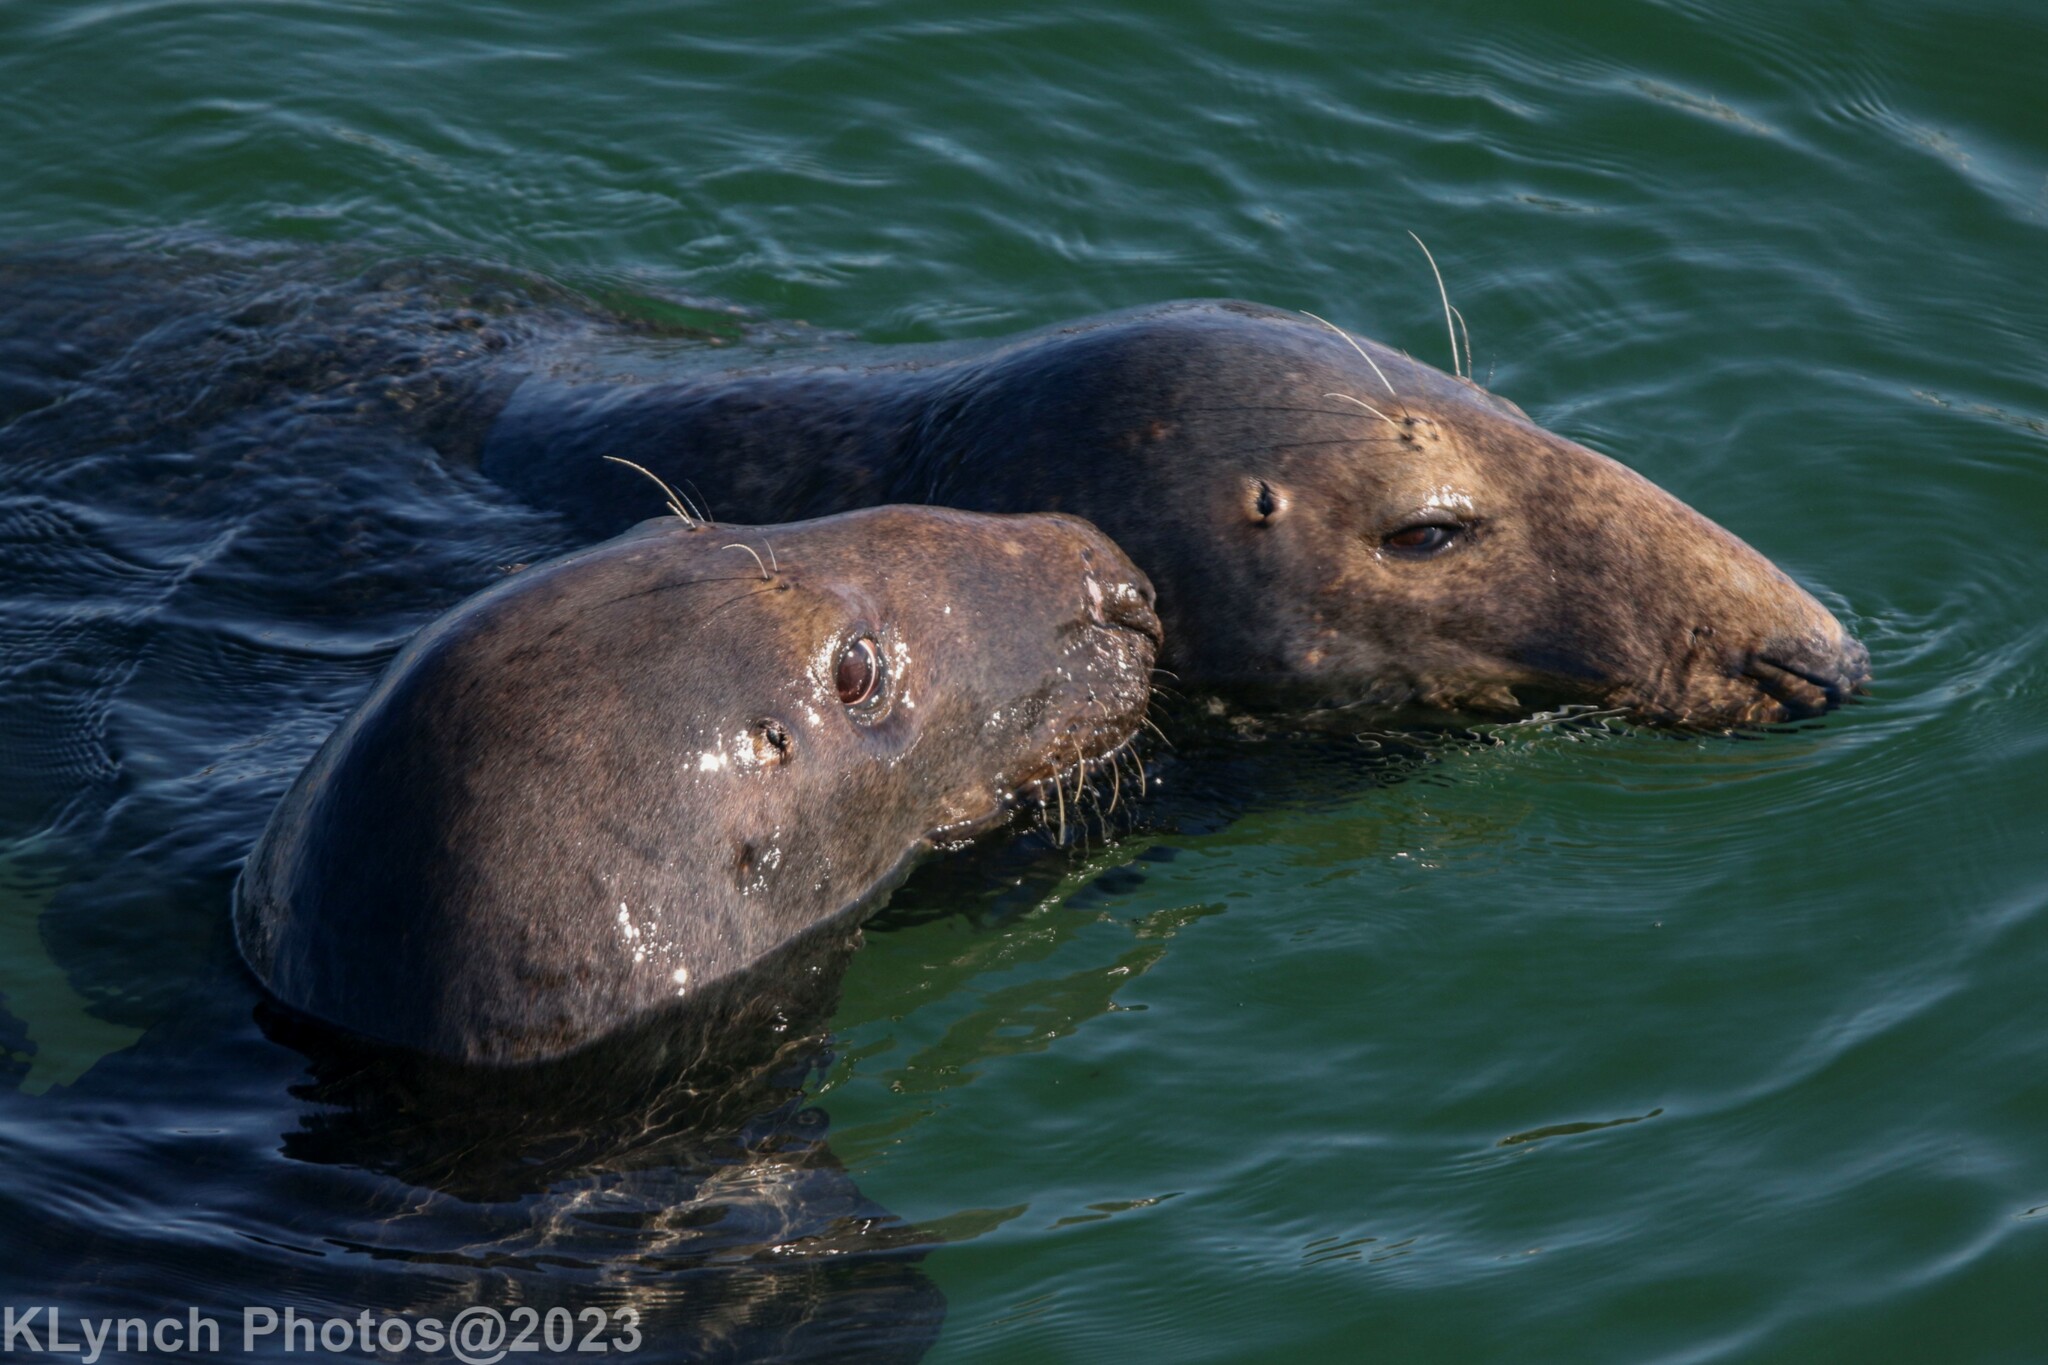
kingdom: Animalia
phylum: Chordata
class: Mammalia
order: Carnivora
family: Phocidae
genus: Halichoerus
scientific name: Halichoerus grypus
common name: Grey seal
